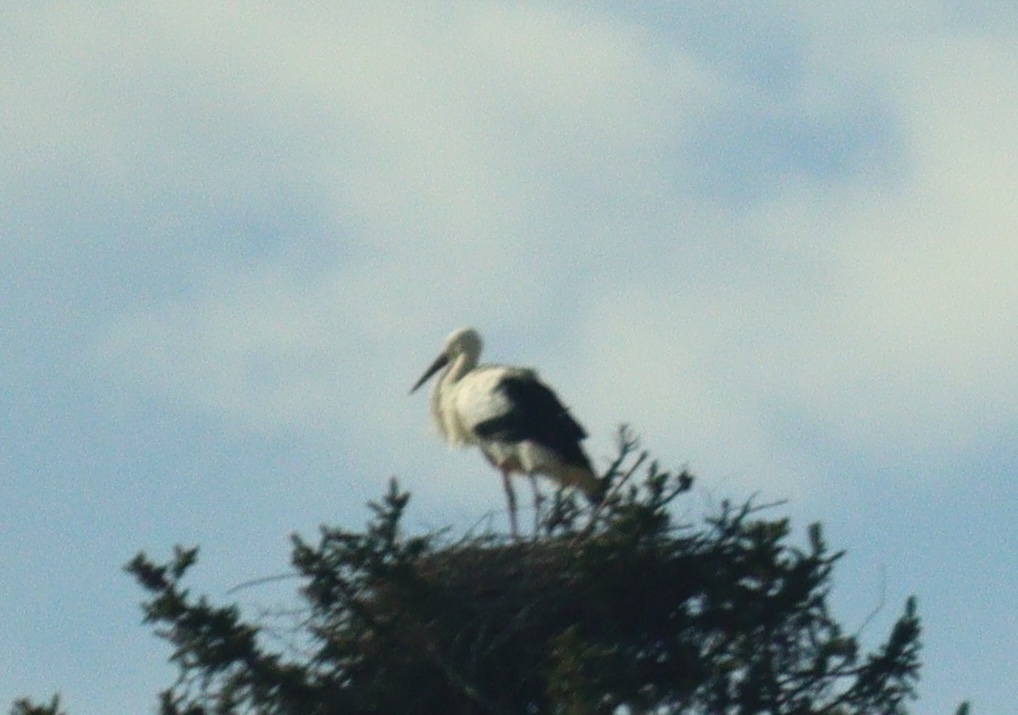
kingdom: Animalia
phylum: Chordata
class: Aves
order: Ciconiiformes
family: Ciconiidae
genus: Ciconia
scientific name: Ciconia ciconia
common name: White stork
